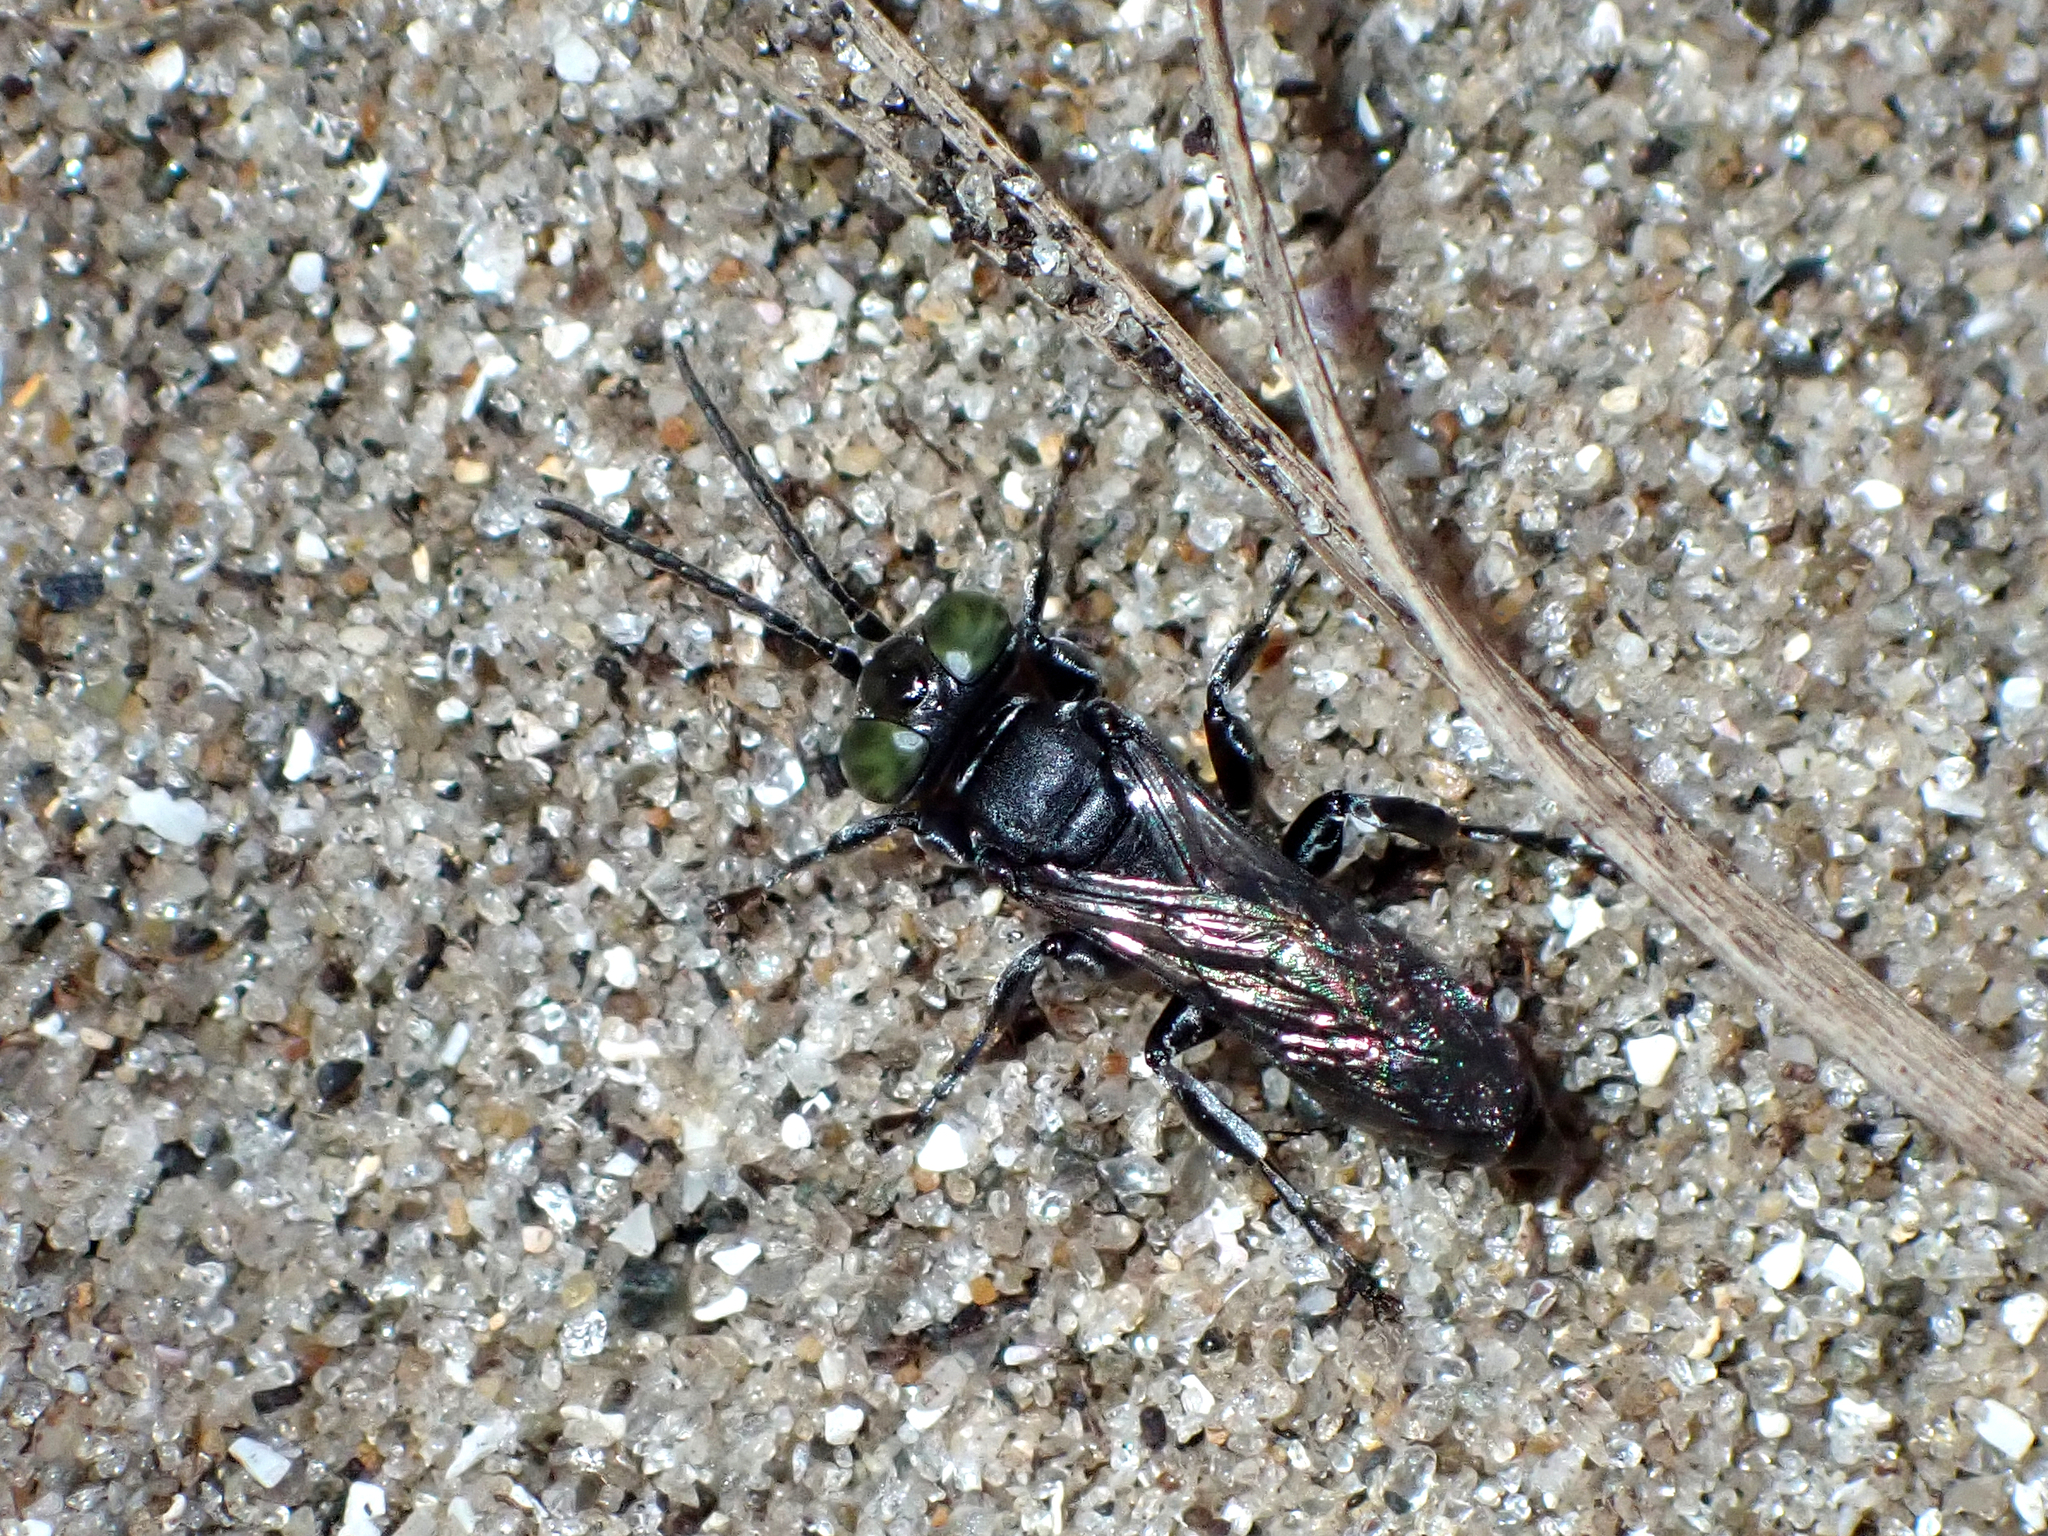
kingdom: Animalia
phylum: Arthropoda
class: Insecta
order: Hymenoptera
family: Crabronidae
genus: Tachysphex
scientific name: Tachysphex nigerrimus
